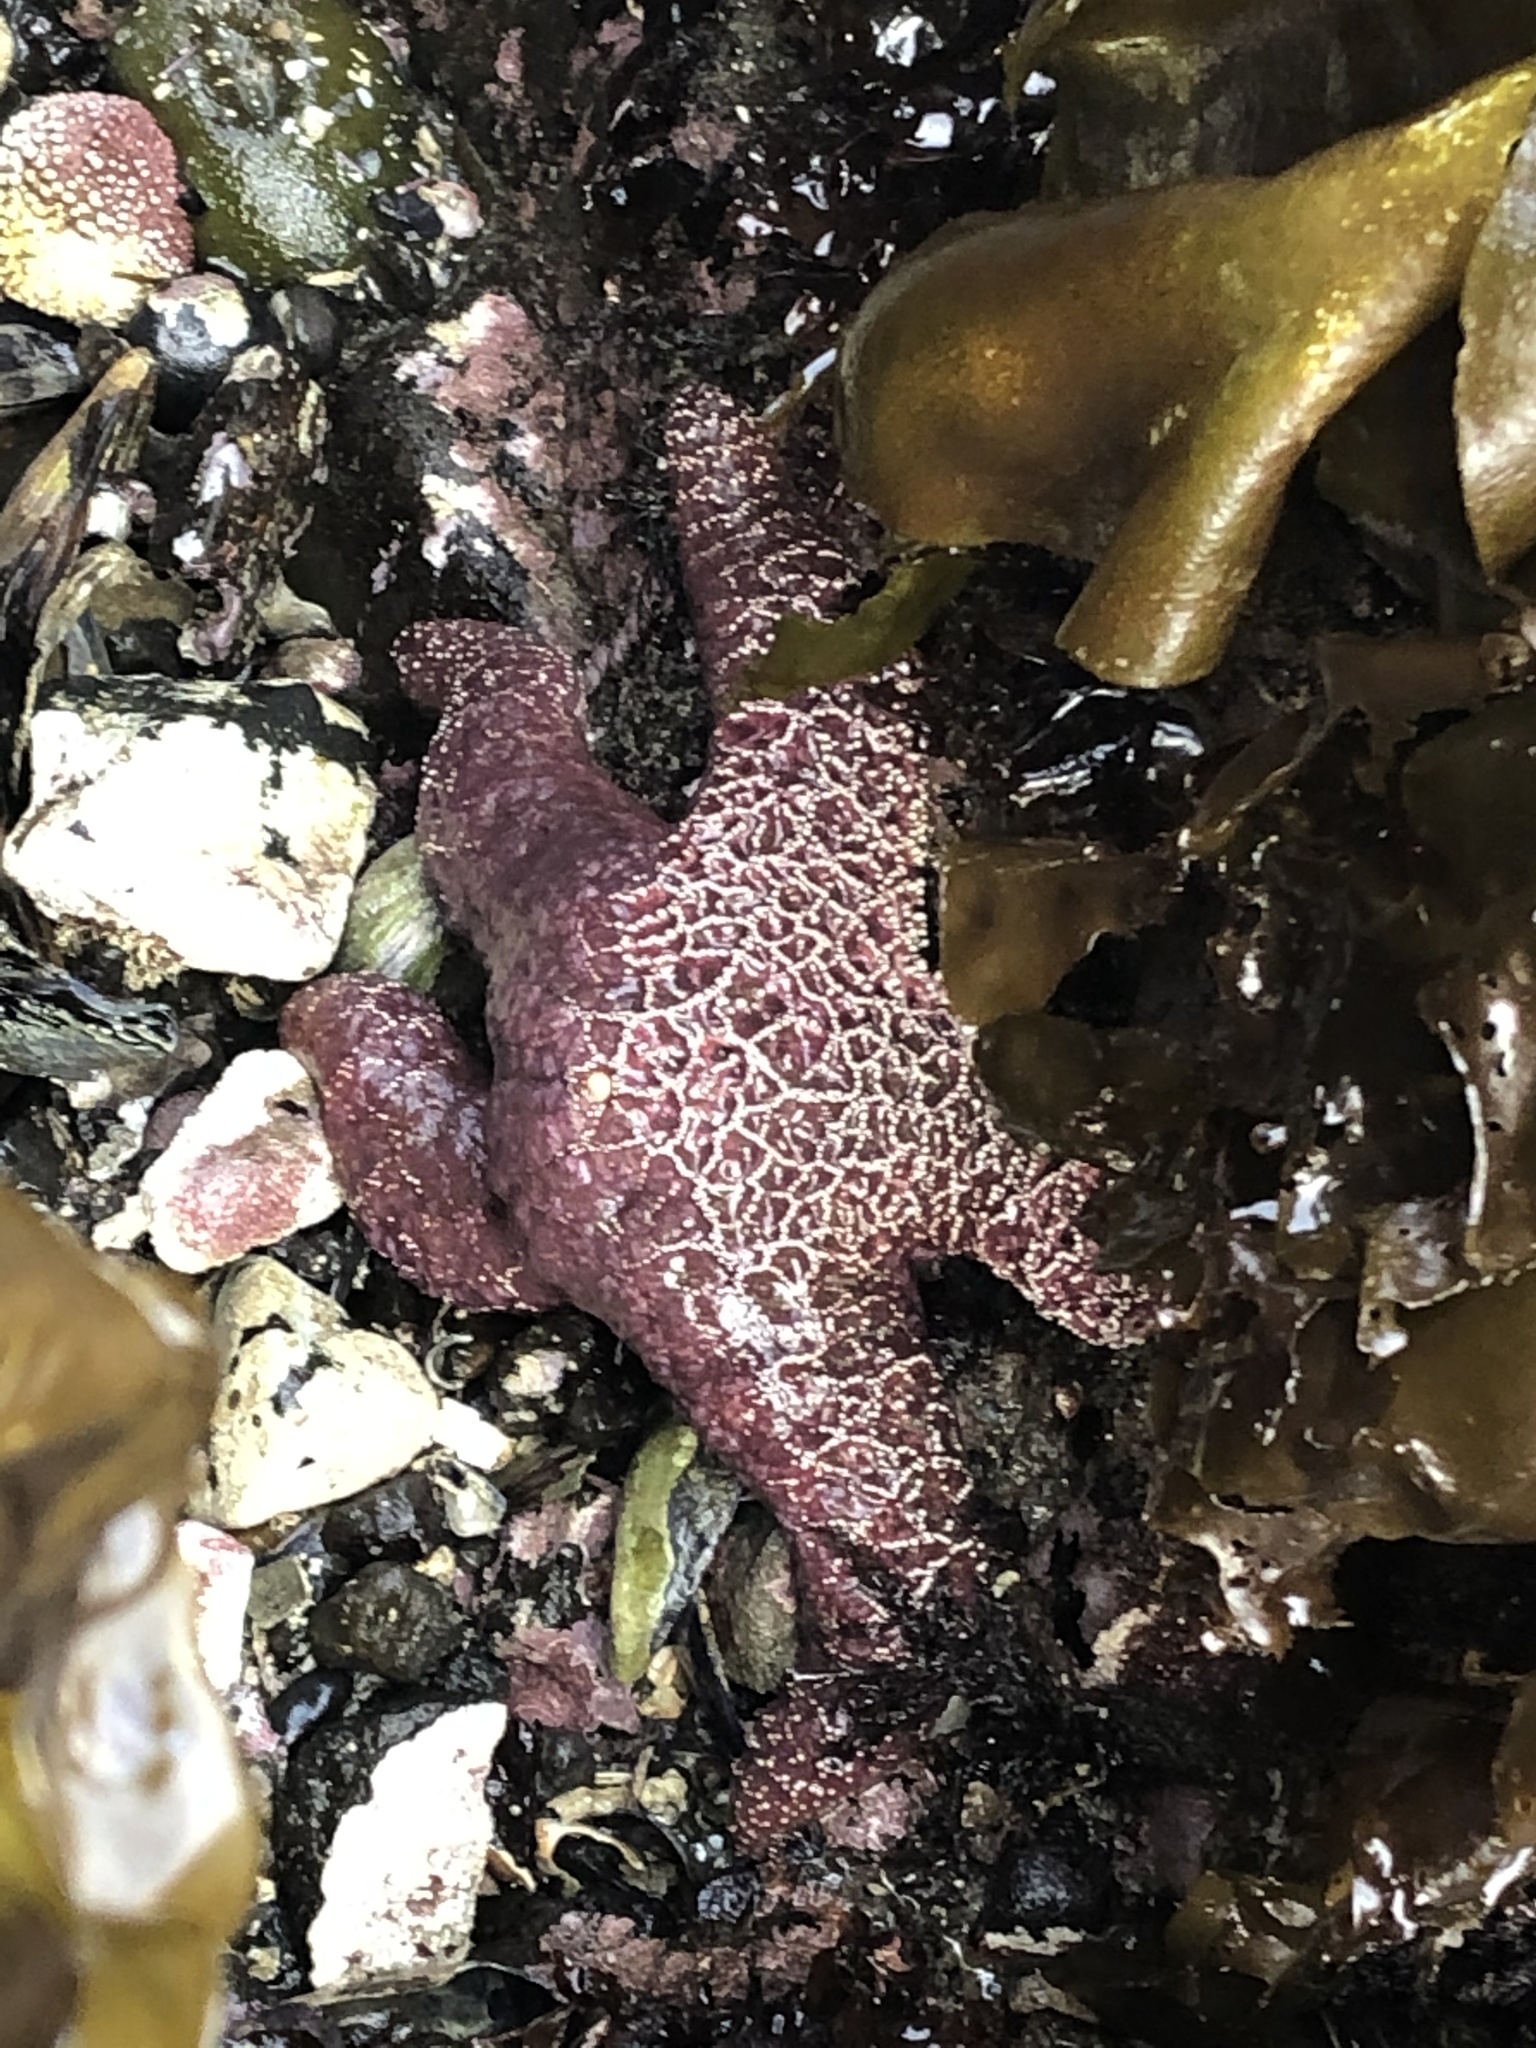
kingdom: Animalia
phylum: Echinodermata
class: Asteroidea
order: Forcipulatida
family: Asteriidae
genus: Pisaster
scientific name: Pisaster ochraceus
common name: Ochre stars
